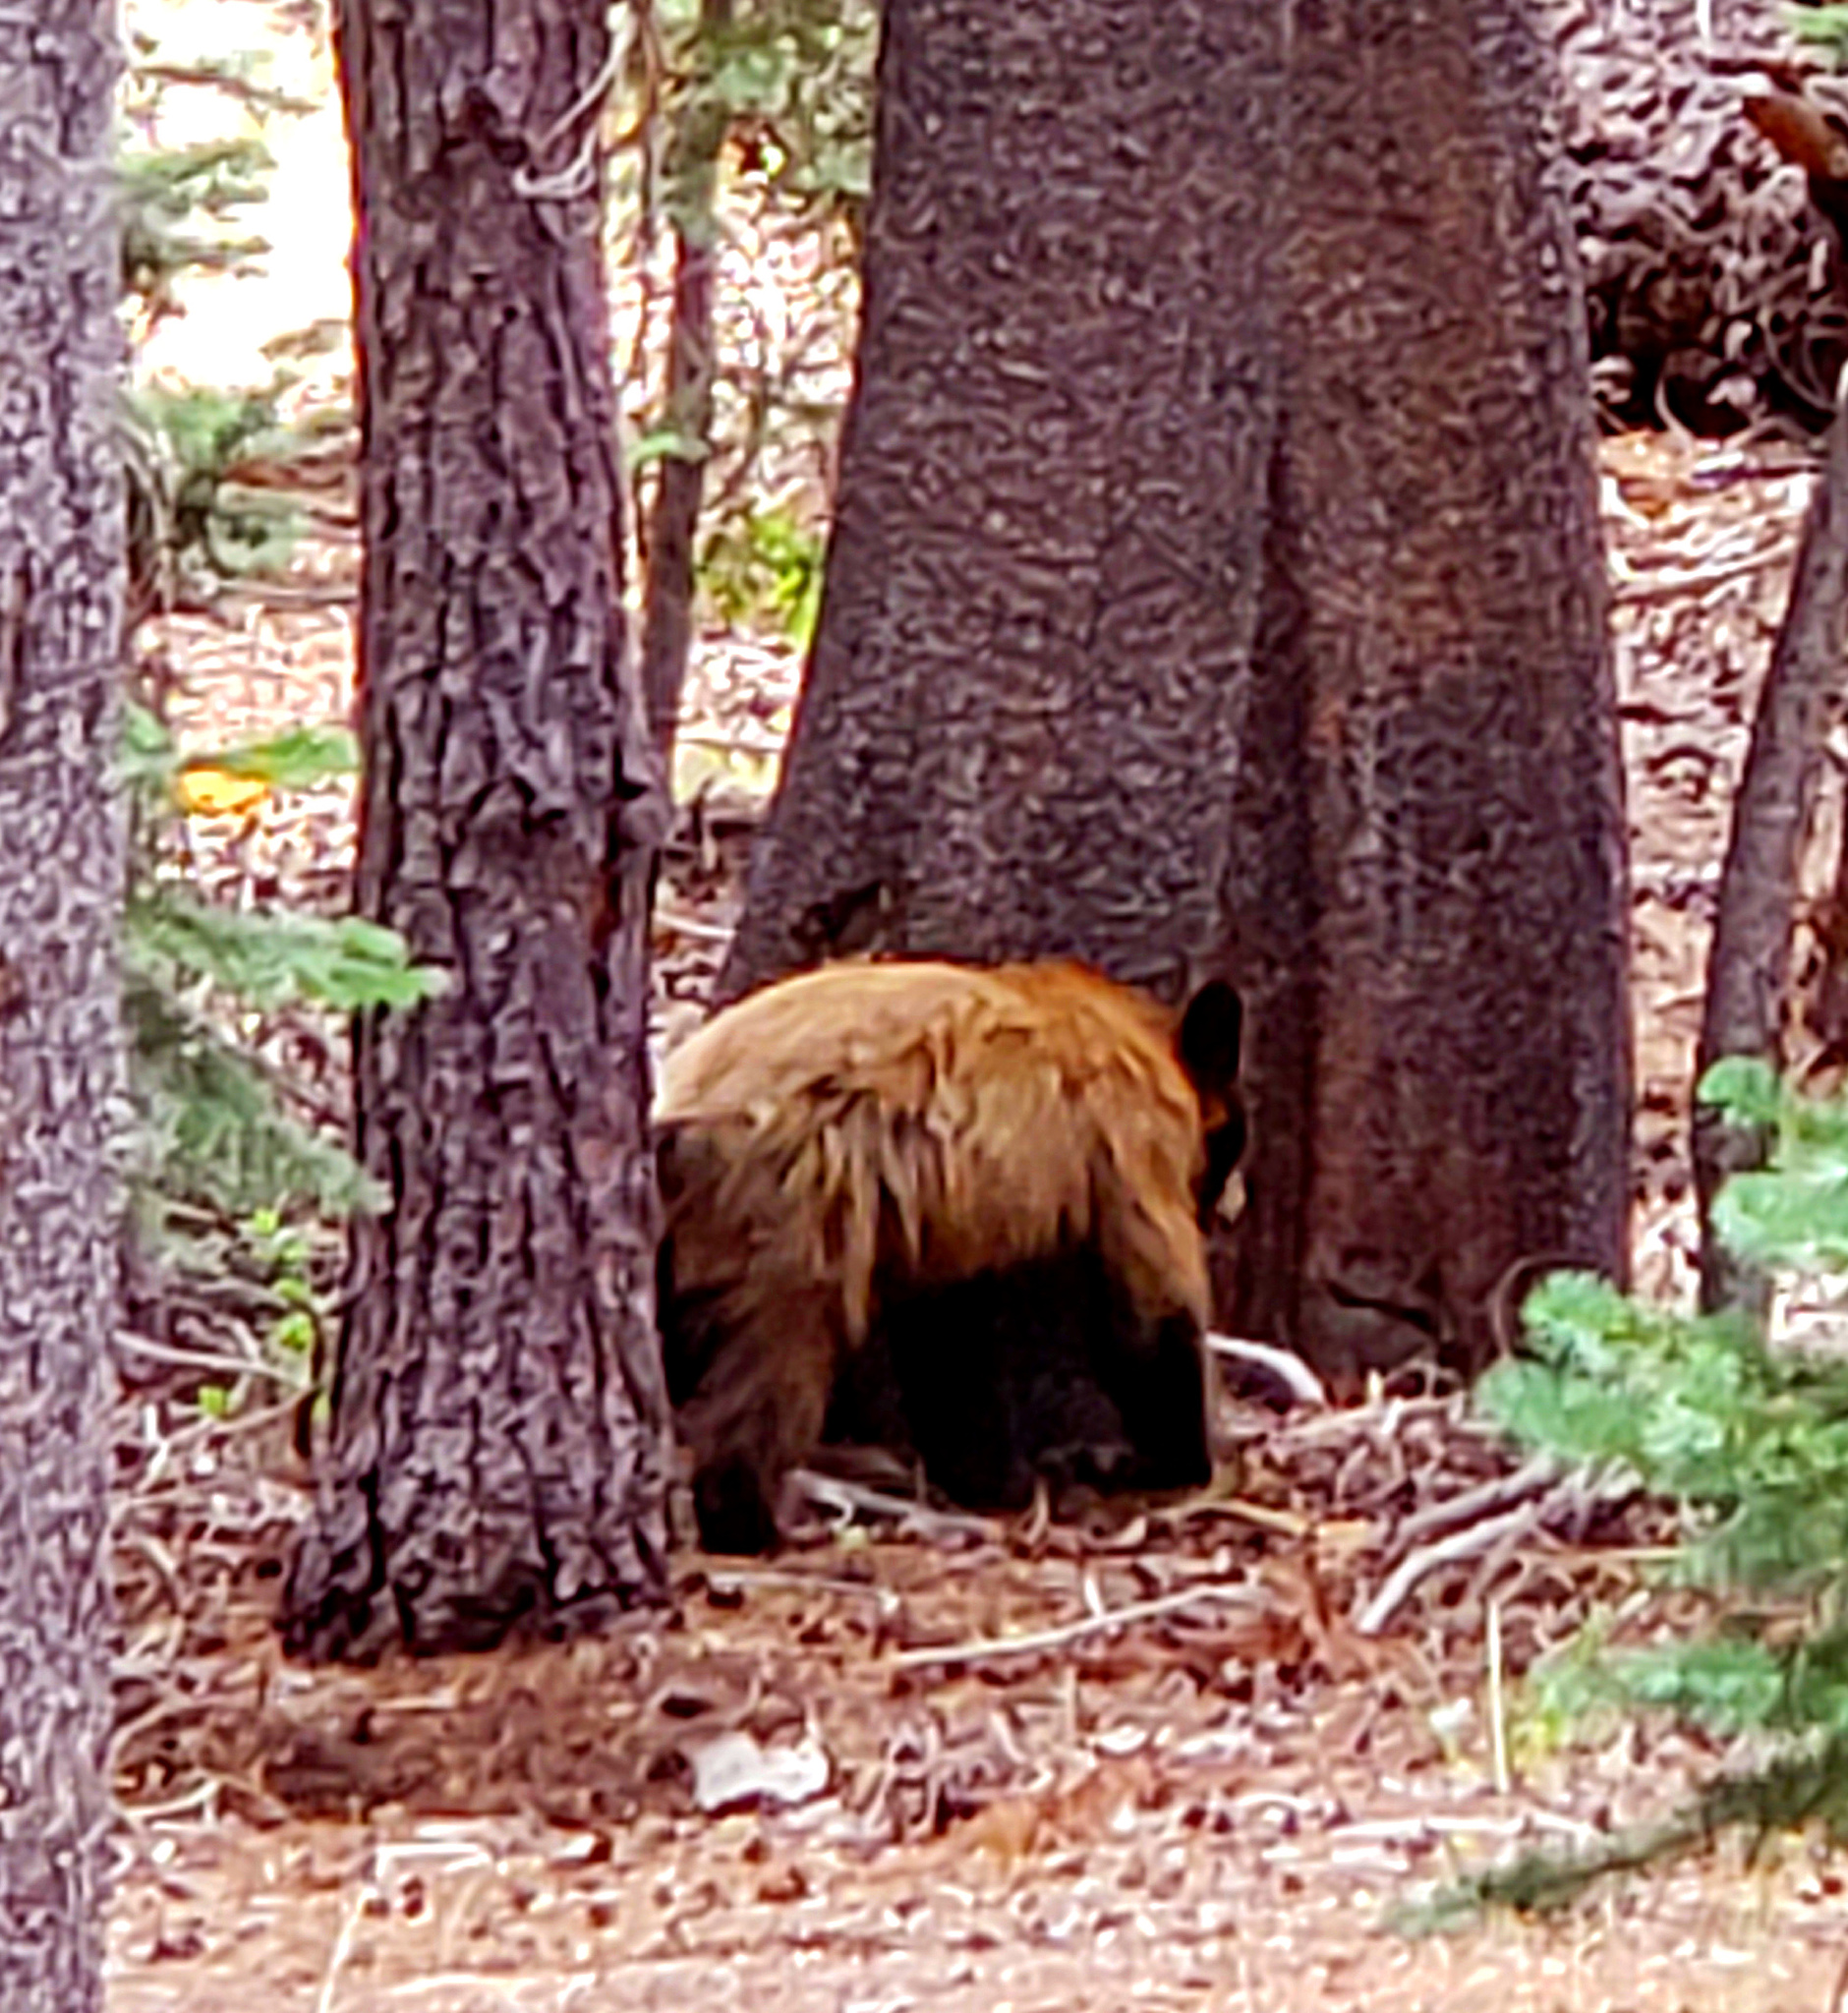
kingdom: Animalia
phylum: Chordata
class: Mammalia
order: Carnivora
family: Ursidae
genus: Ursus
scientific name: Ursus americanus
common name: American black bear
